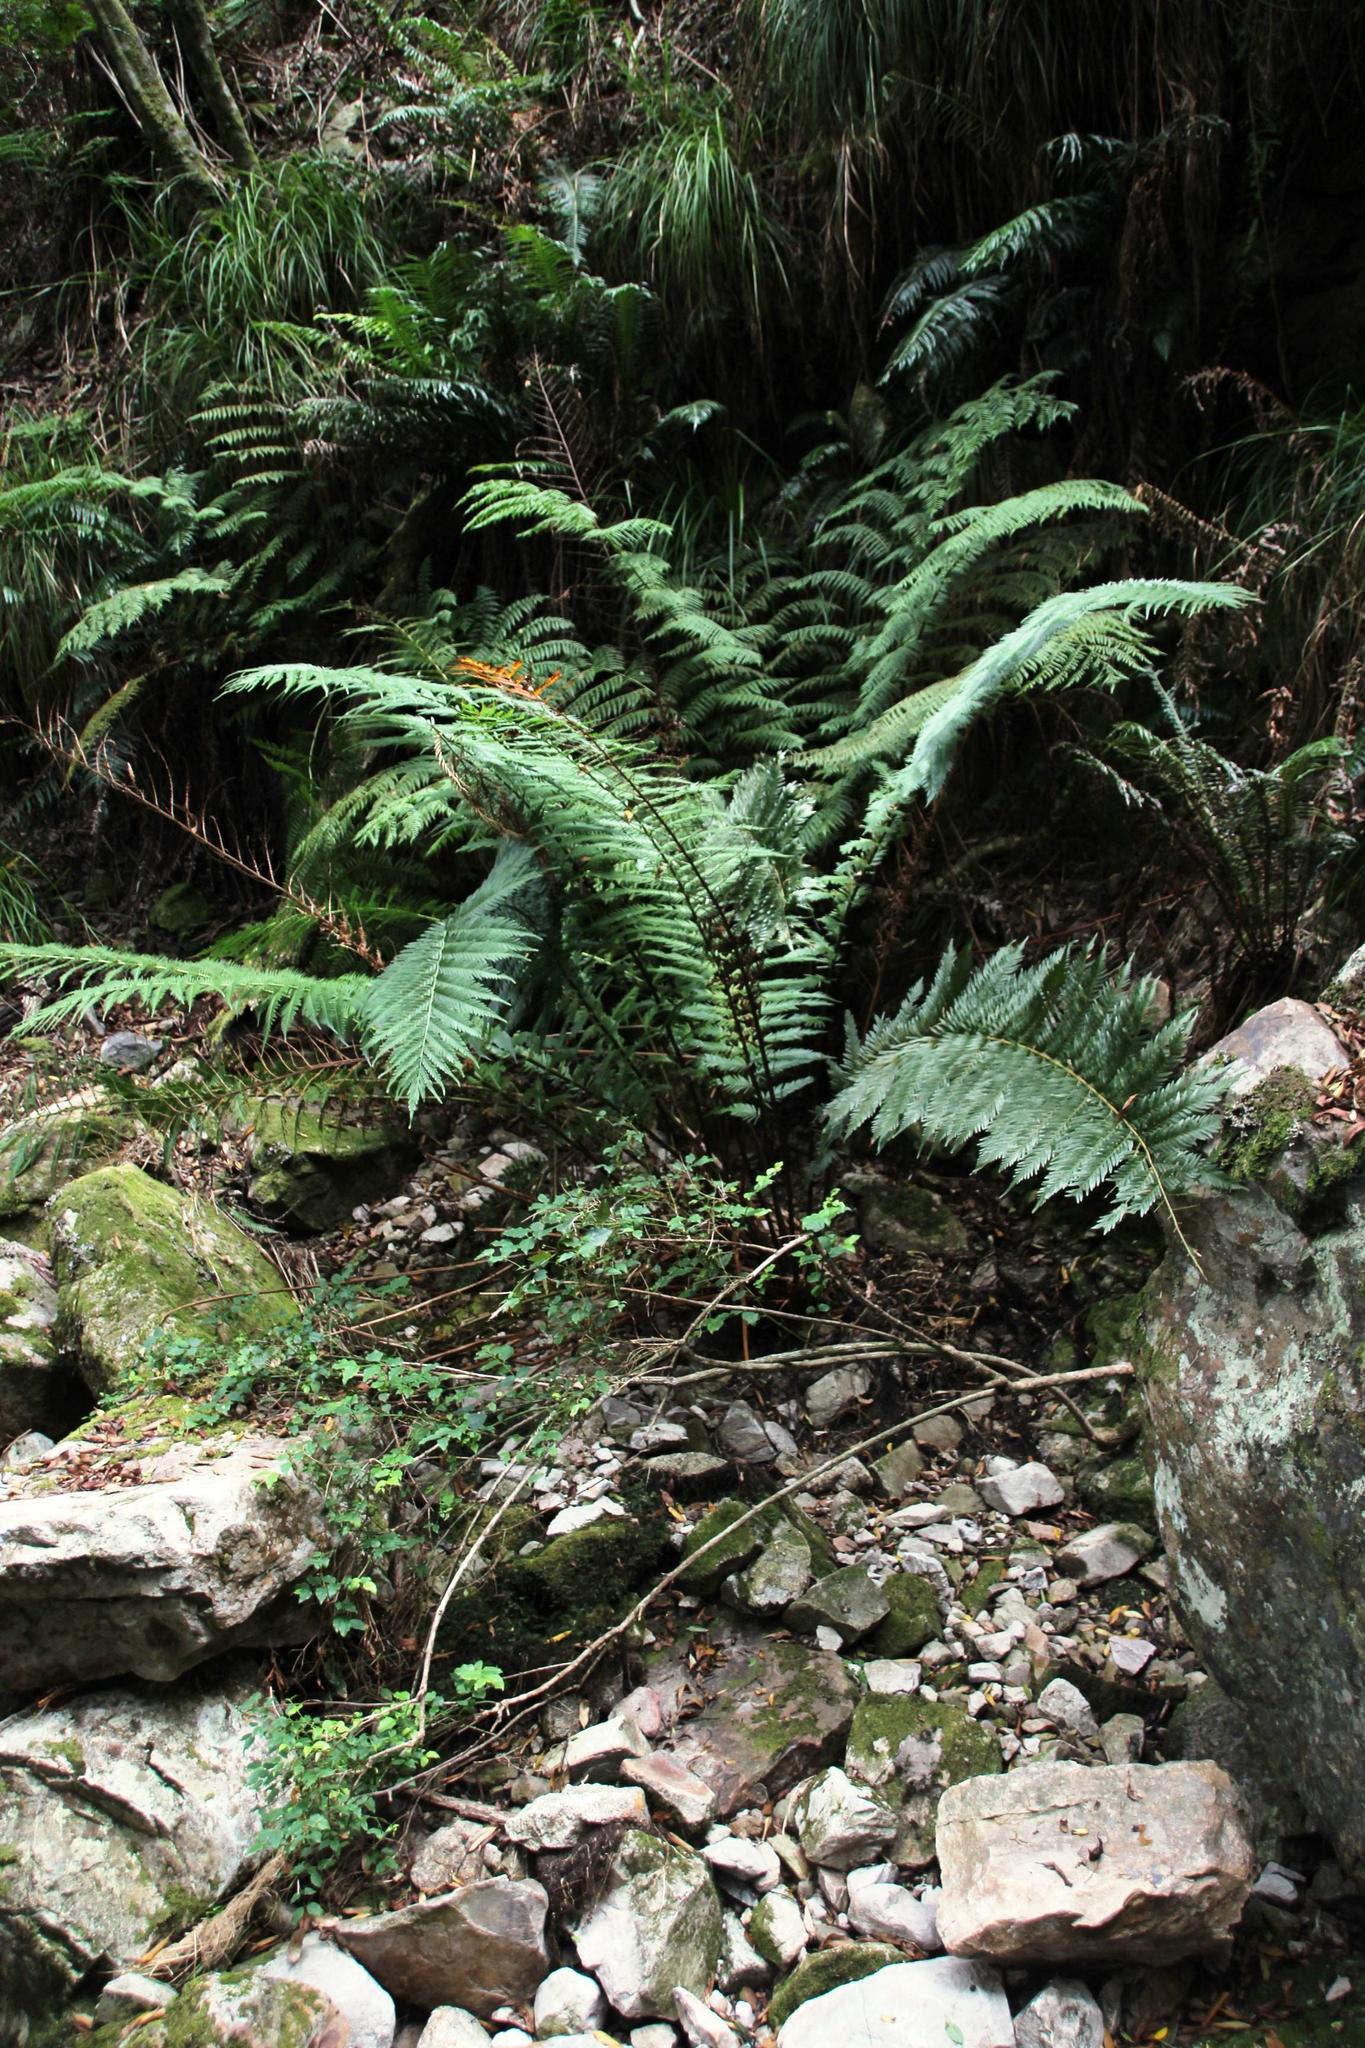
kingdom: Plantae
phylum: Tracheophyta
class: Polypodiopsida
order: Osmundales
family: Osmundaceae
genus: Todea
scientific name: Todea barbara
